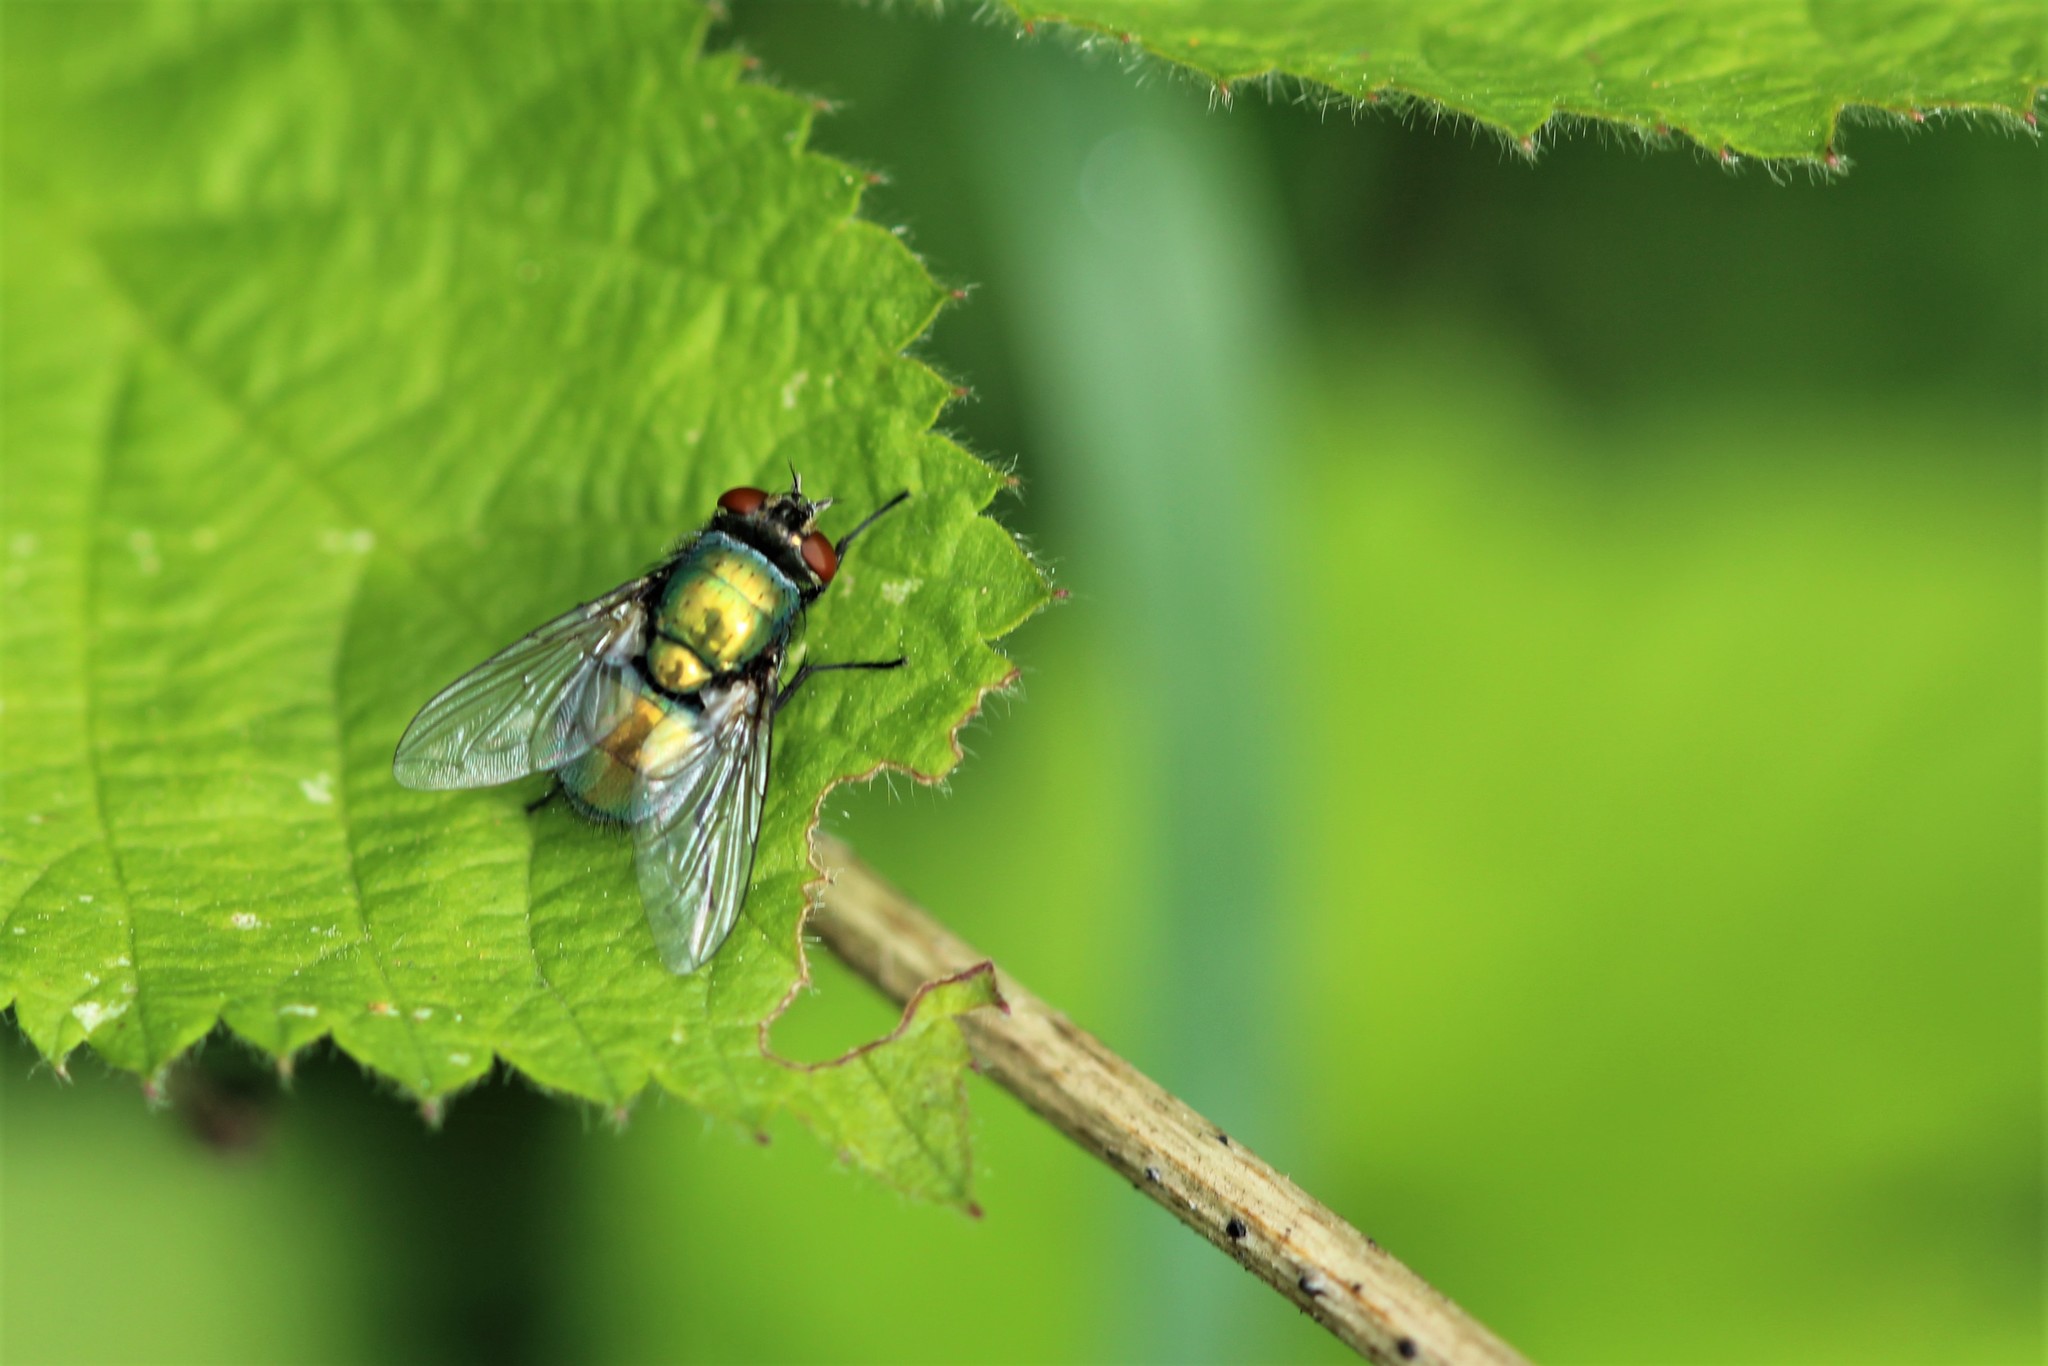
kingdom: Animalia
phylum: Arthropoda
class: Insecta
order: Diptera
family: Calliphoridae
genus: Lucilia
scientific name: Lucilia sericata
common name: Blow fly
